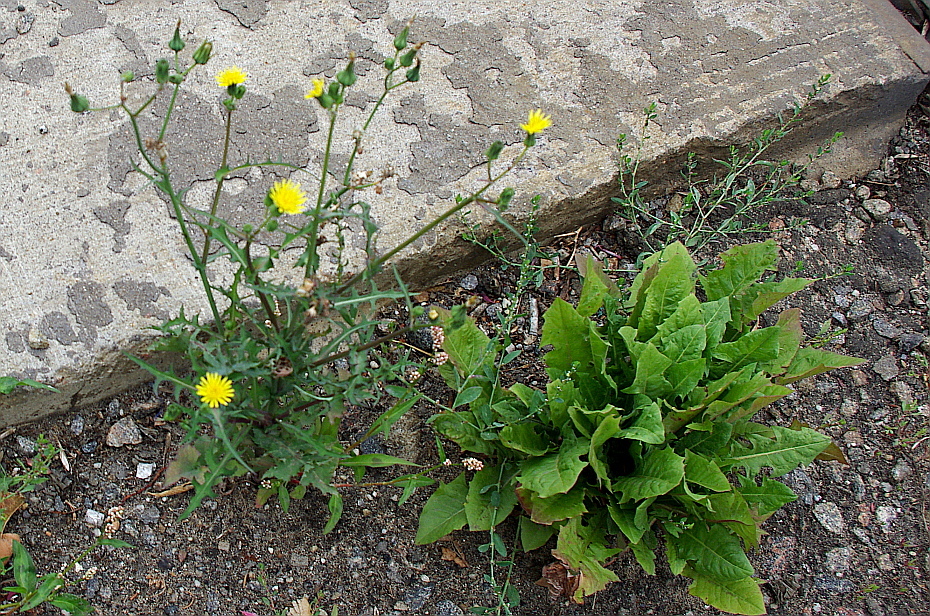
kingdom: Plantae
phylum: Tracheophyta
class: Magnoliopsida
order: Asterales
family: Asteraceae
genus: Sonchus
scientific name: Sonchus oleraceus
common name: Common sowthistle
